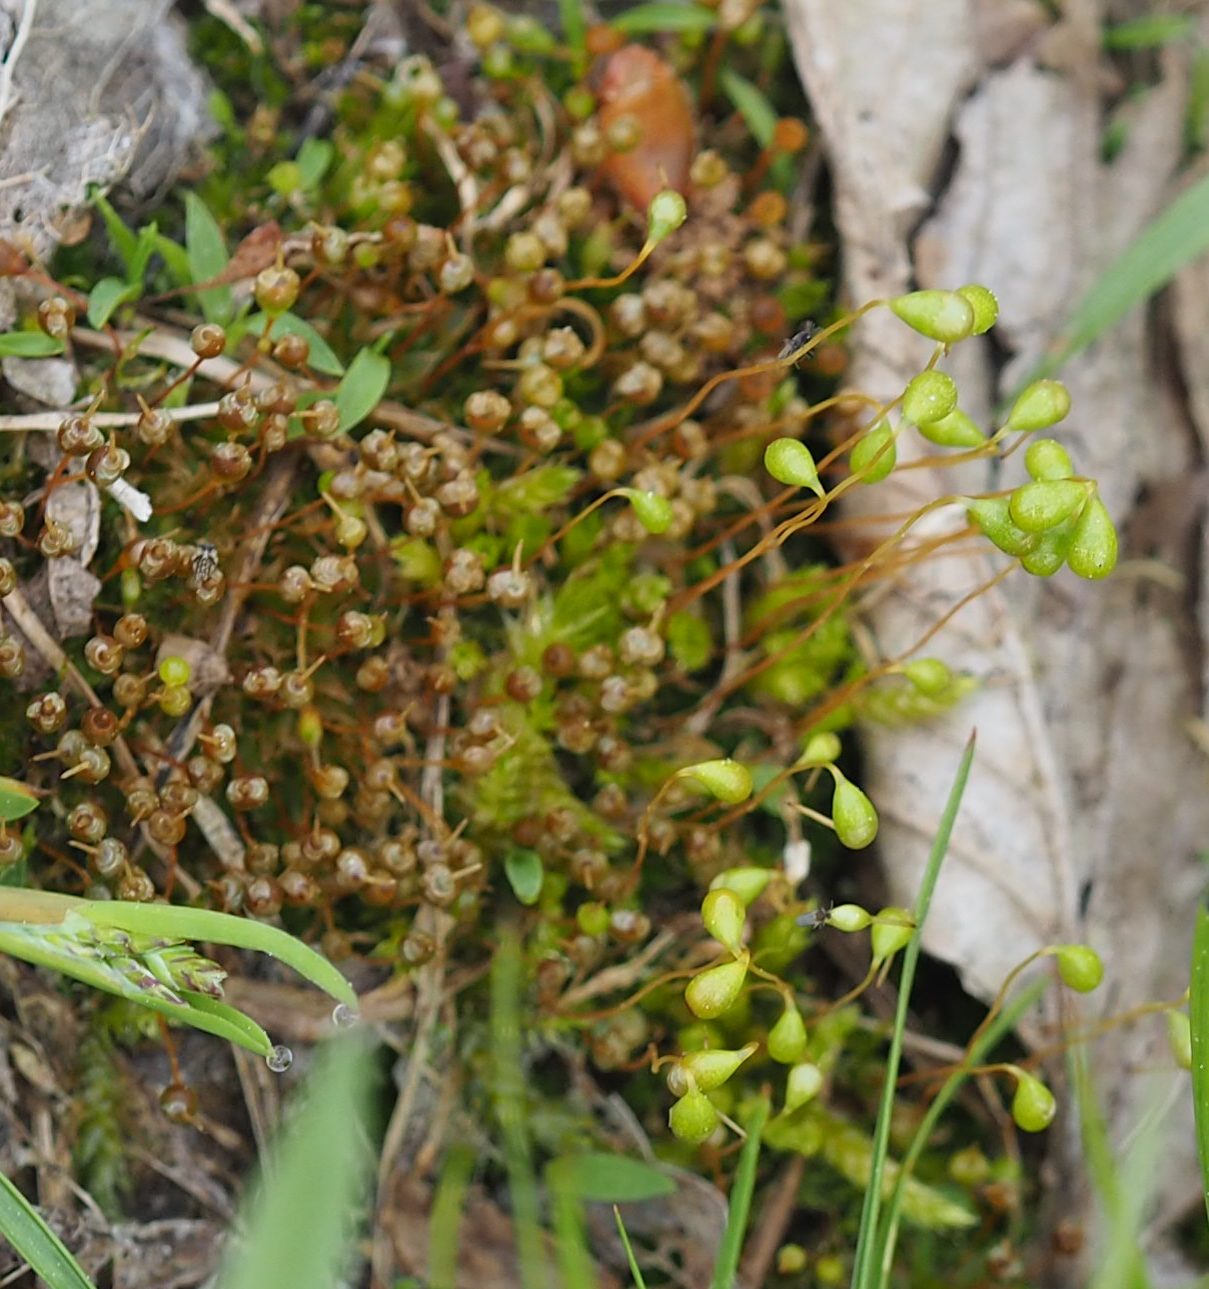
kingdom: Plantae
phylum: Bryophyta
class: Bryopsida
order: Funariales
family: Funariaceae
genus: Physcomitrium
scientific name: Physcomitrium pyriforme
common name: Common bladder-moss
